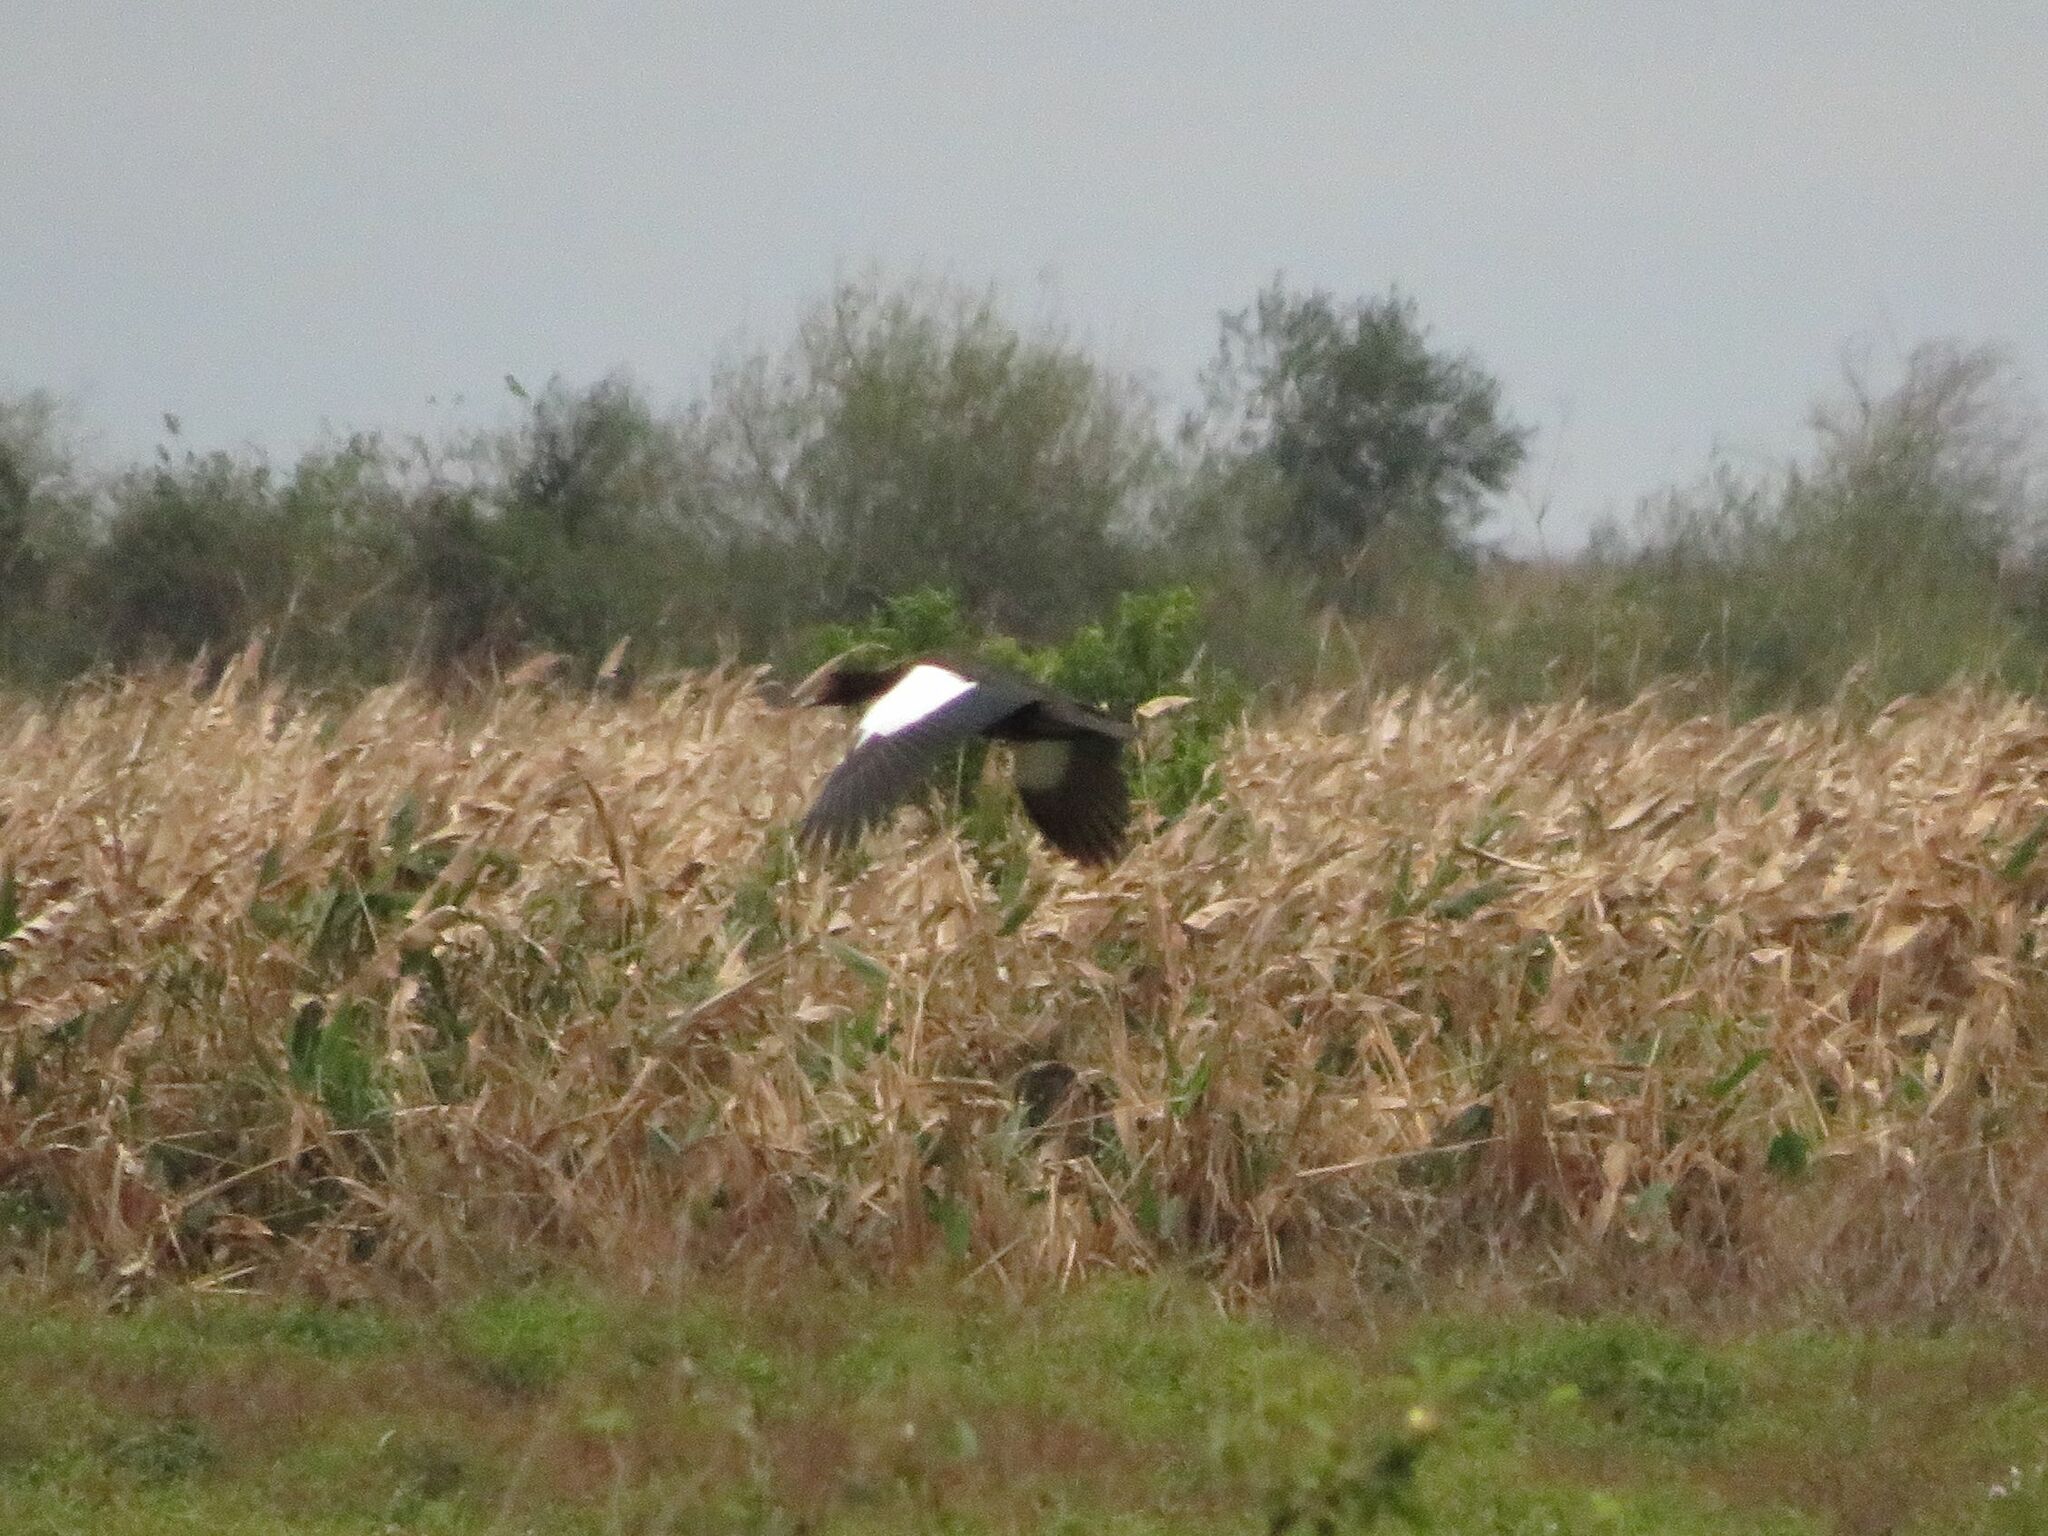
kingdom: Animalia
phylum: Chordata
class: Aves
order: Anseriformes
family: Anatidae
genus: Cairina
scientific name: Cairina moschata
